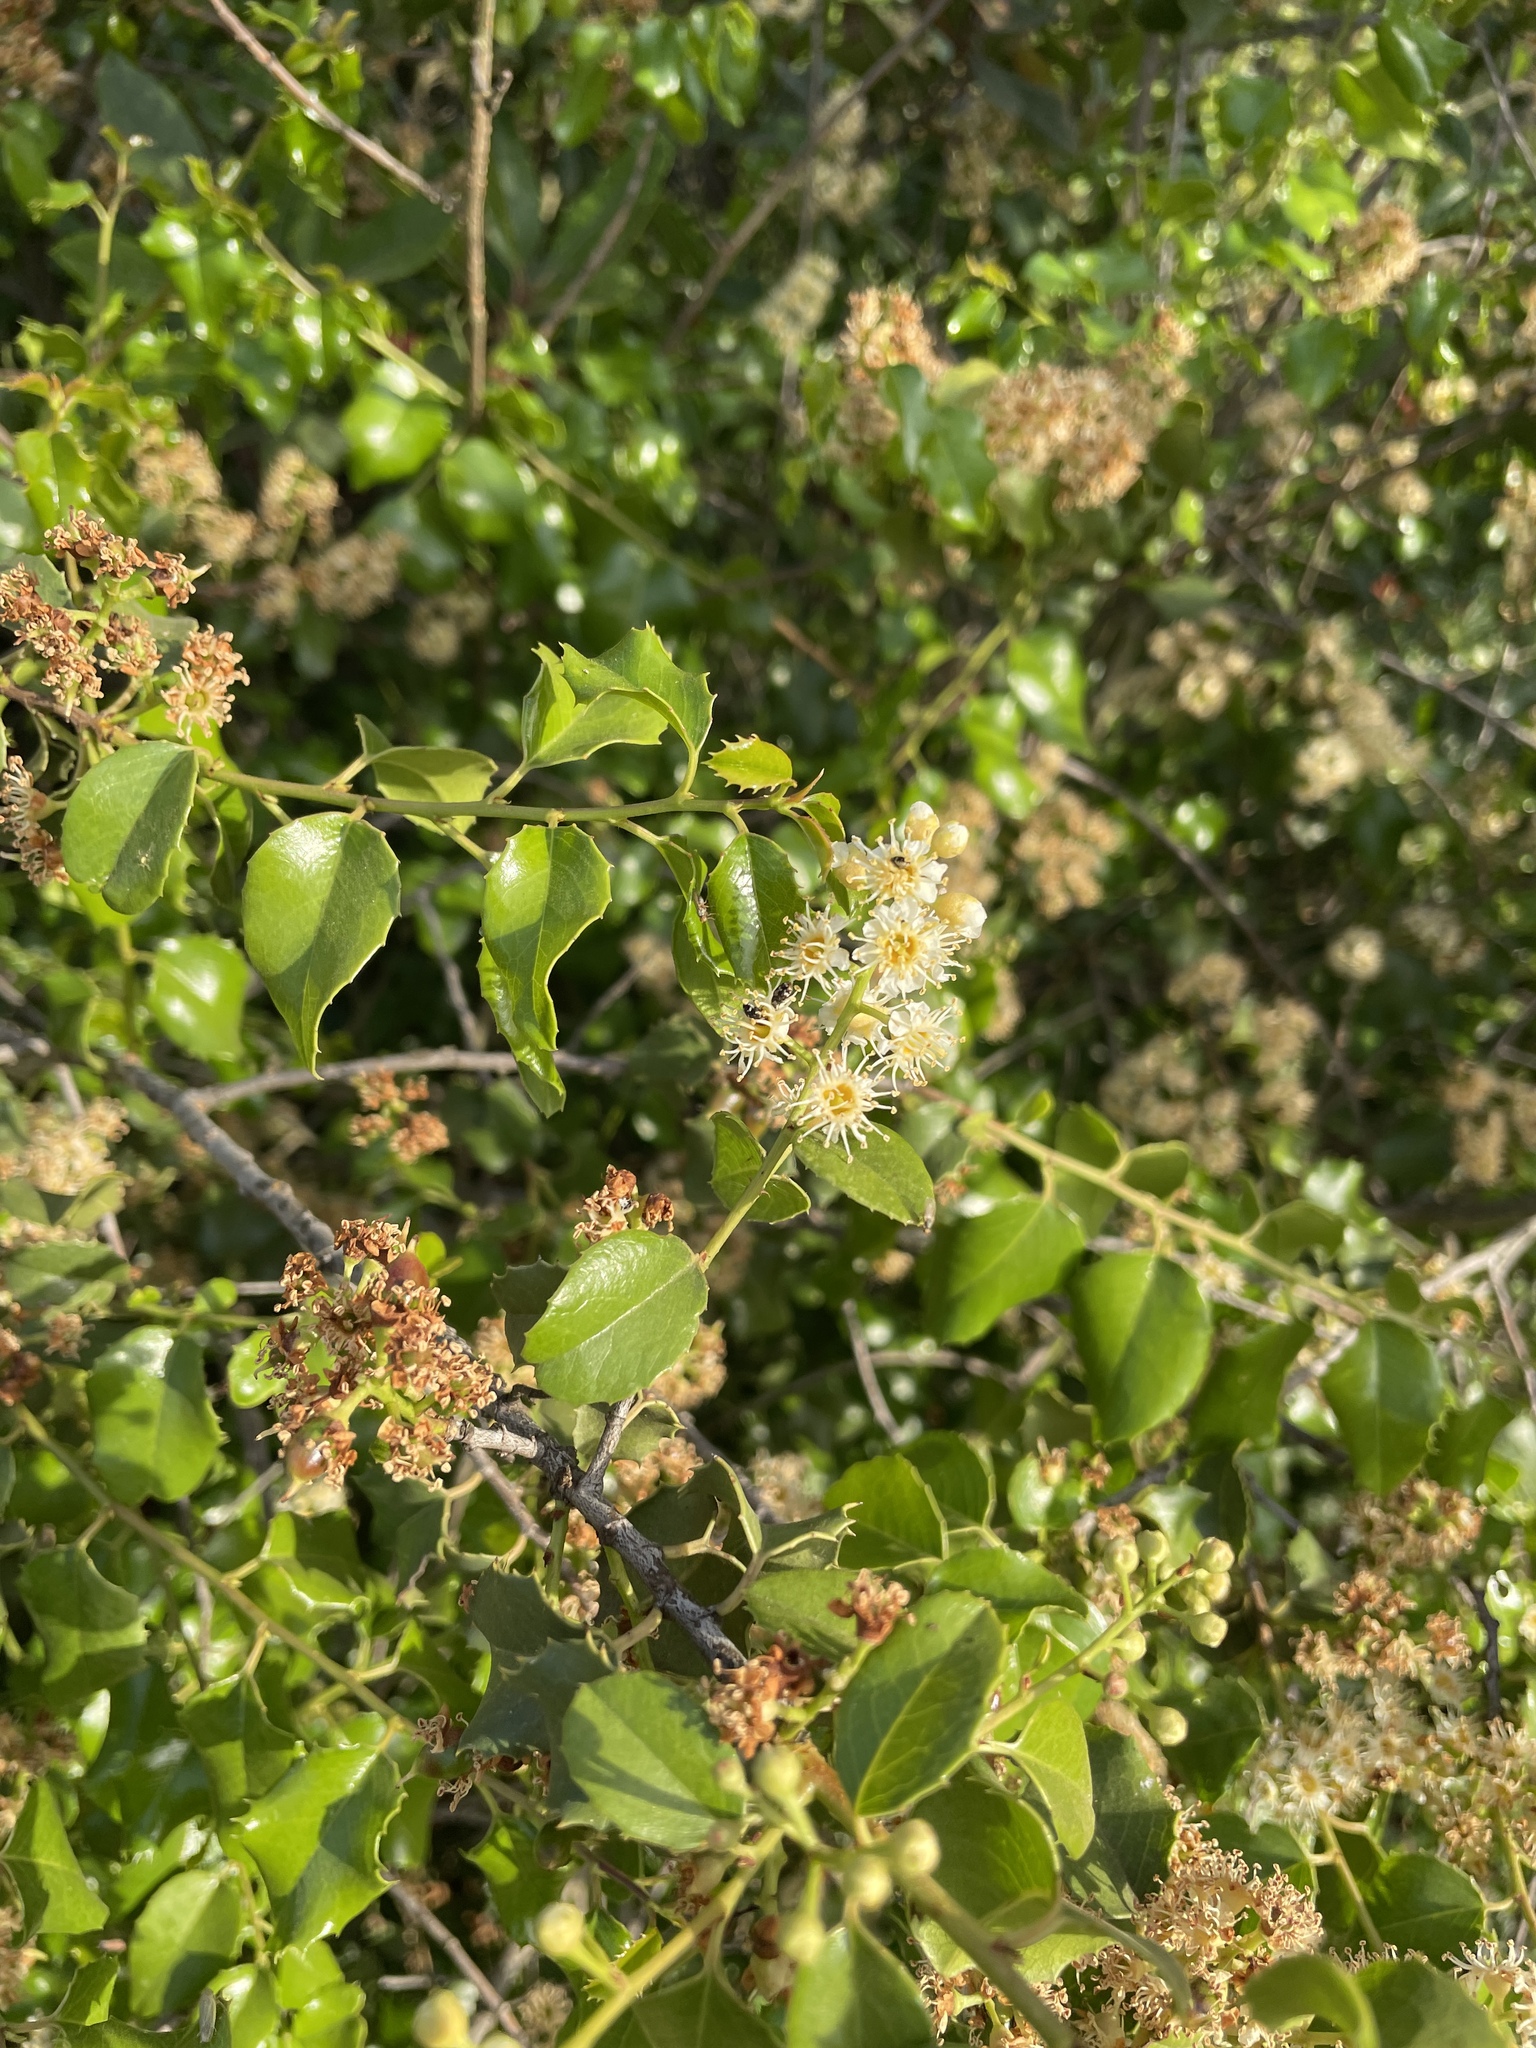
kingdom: Plantae
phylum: Tracheophyta
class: Magnoliopsida
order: Rosales
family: Rosaceae
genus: Prunus
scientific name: Prunus ilicifolia
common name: Hollyleaf cherry
